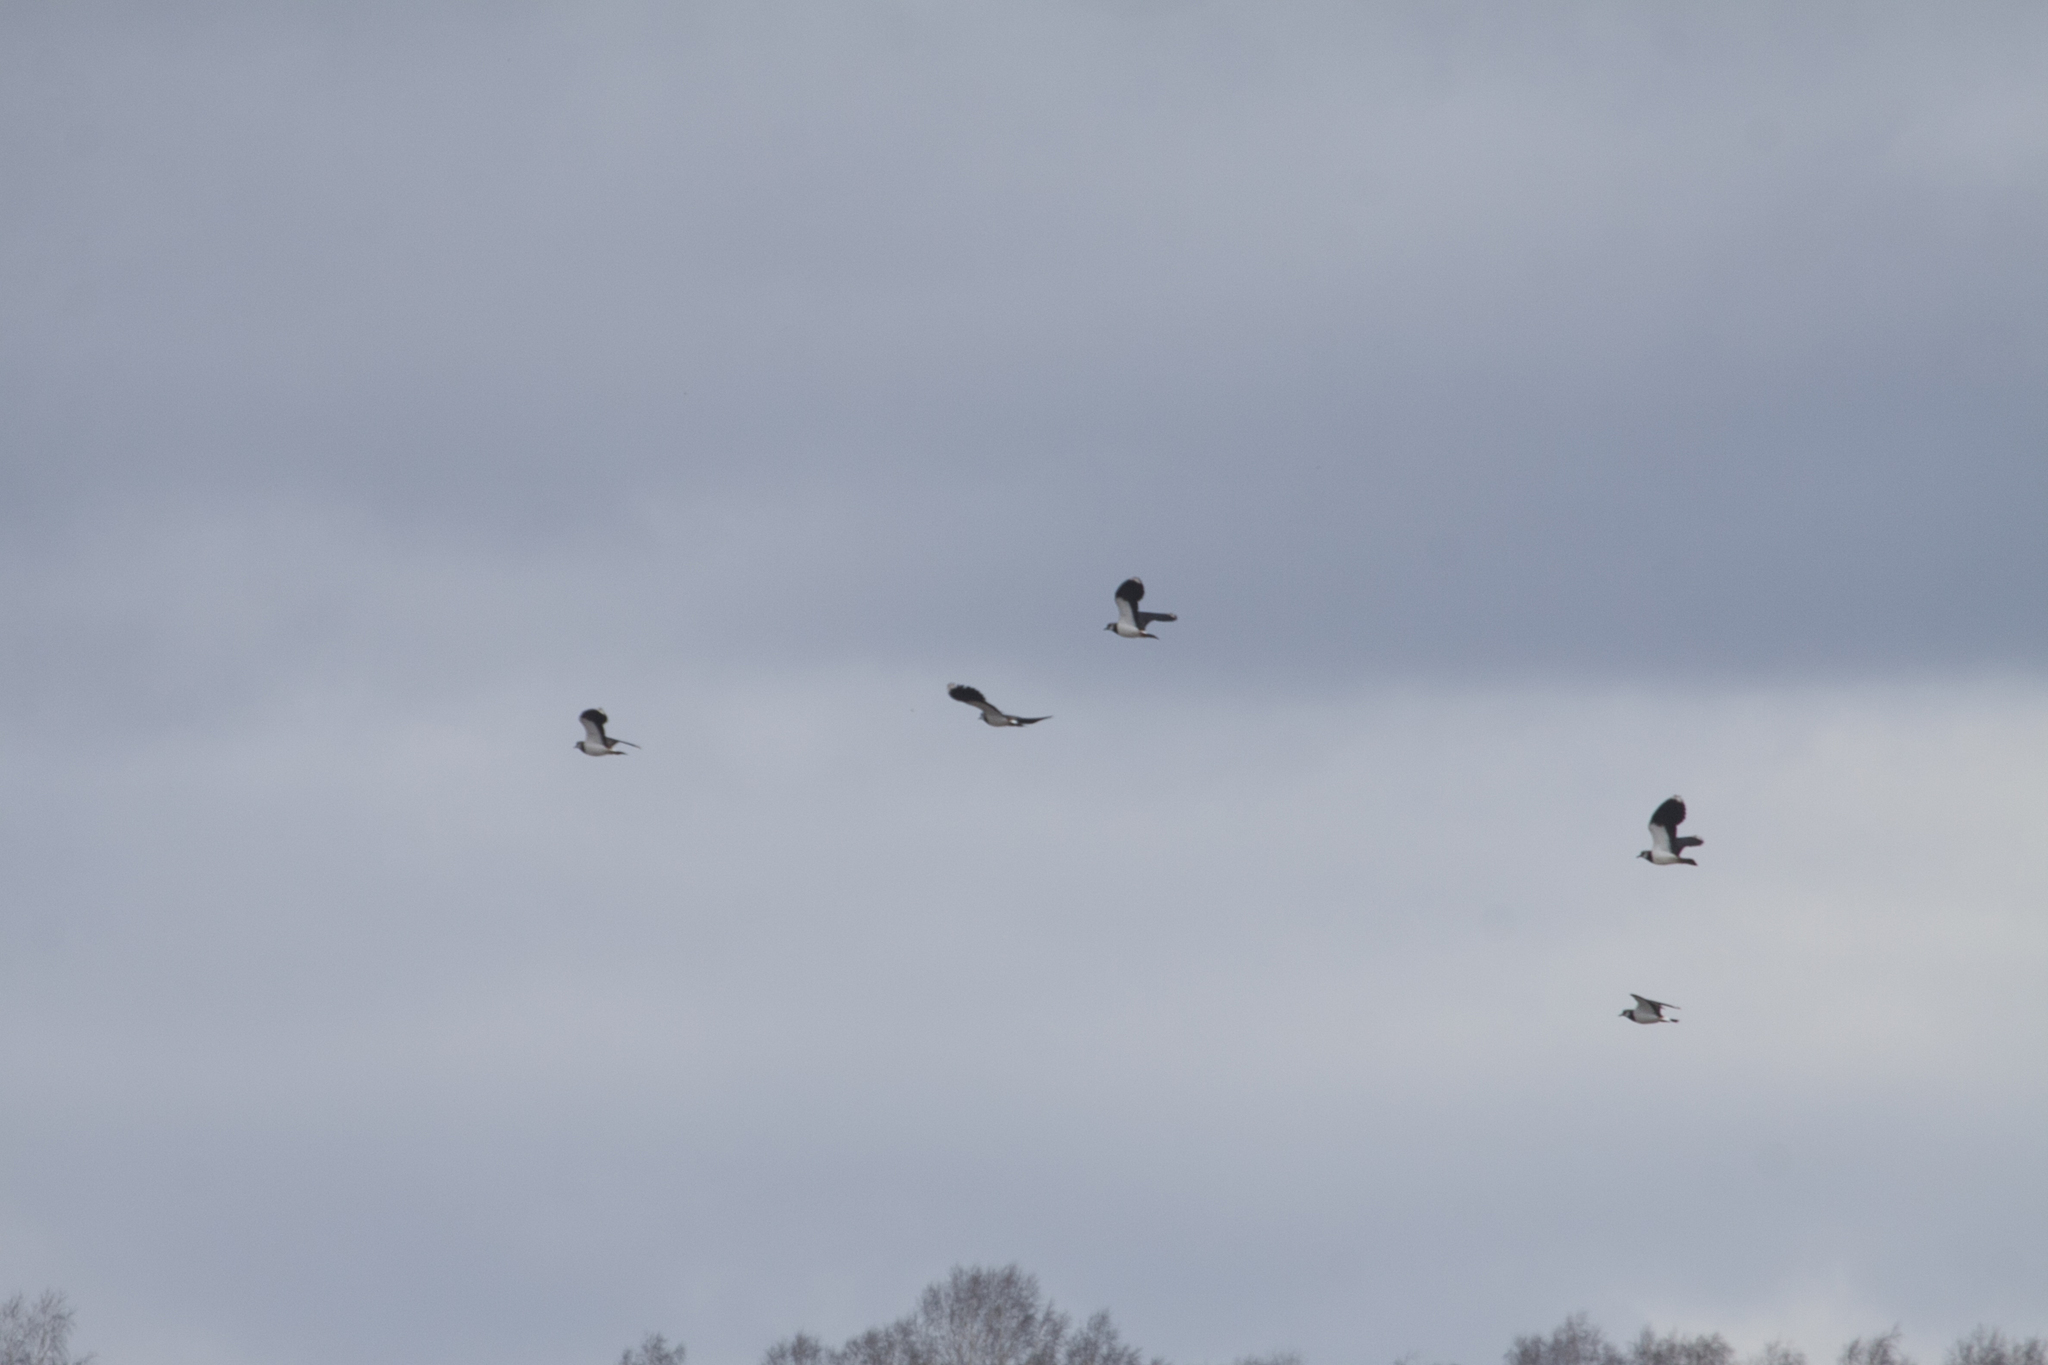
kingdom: Animalia
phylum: Chordata
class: Aves
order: Charadriiformes
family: Charadriidae
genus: Vanellus
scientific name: Vanellus vanellus
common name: Northern lapwing
